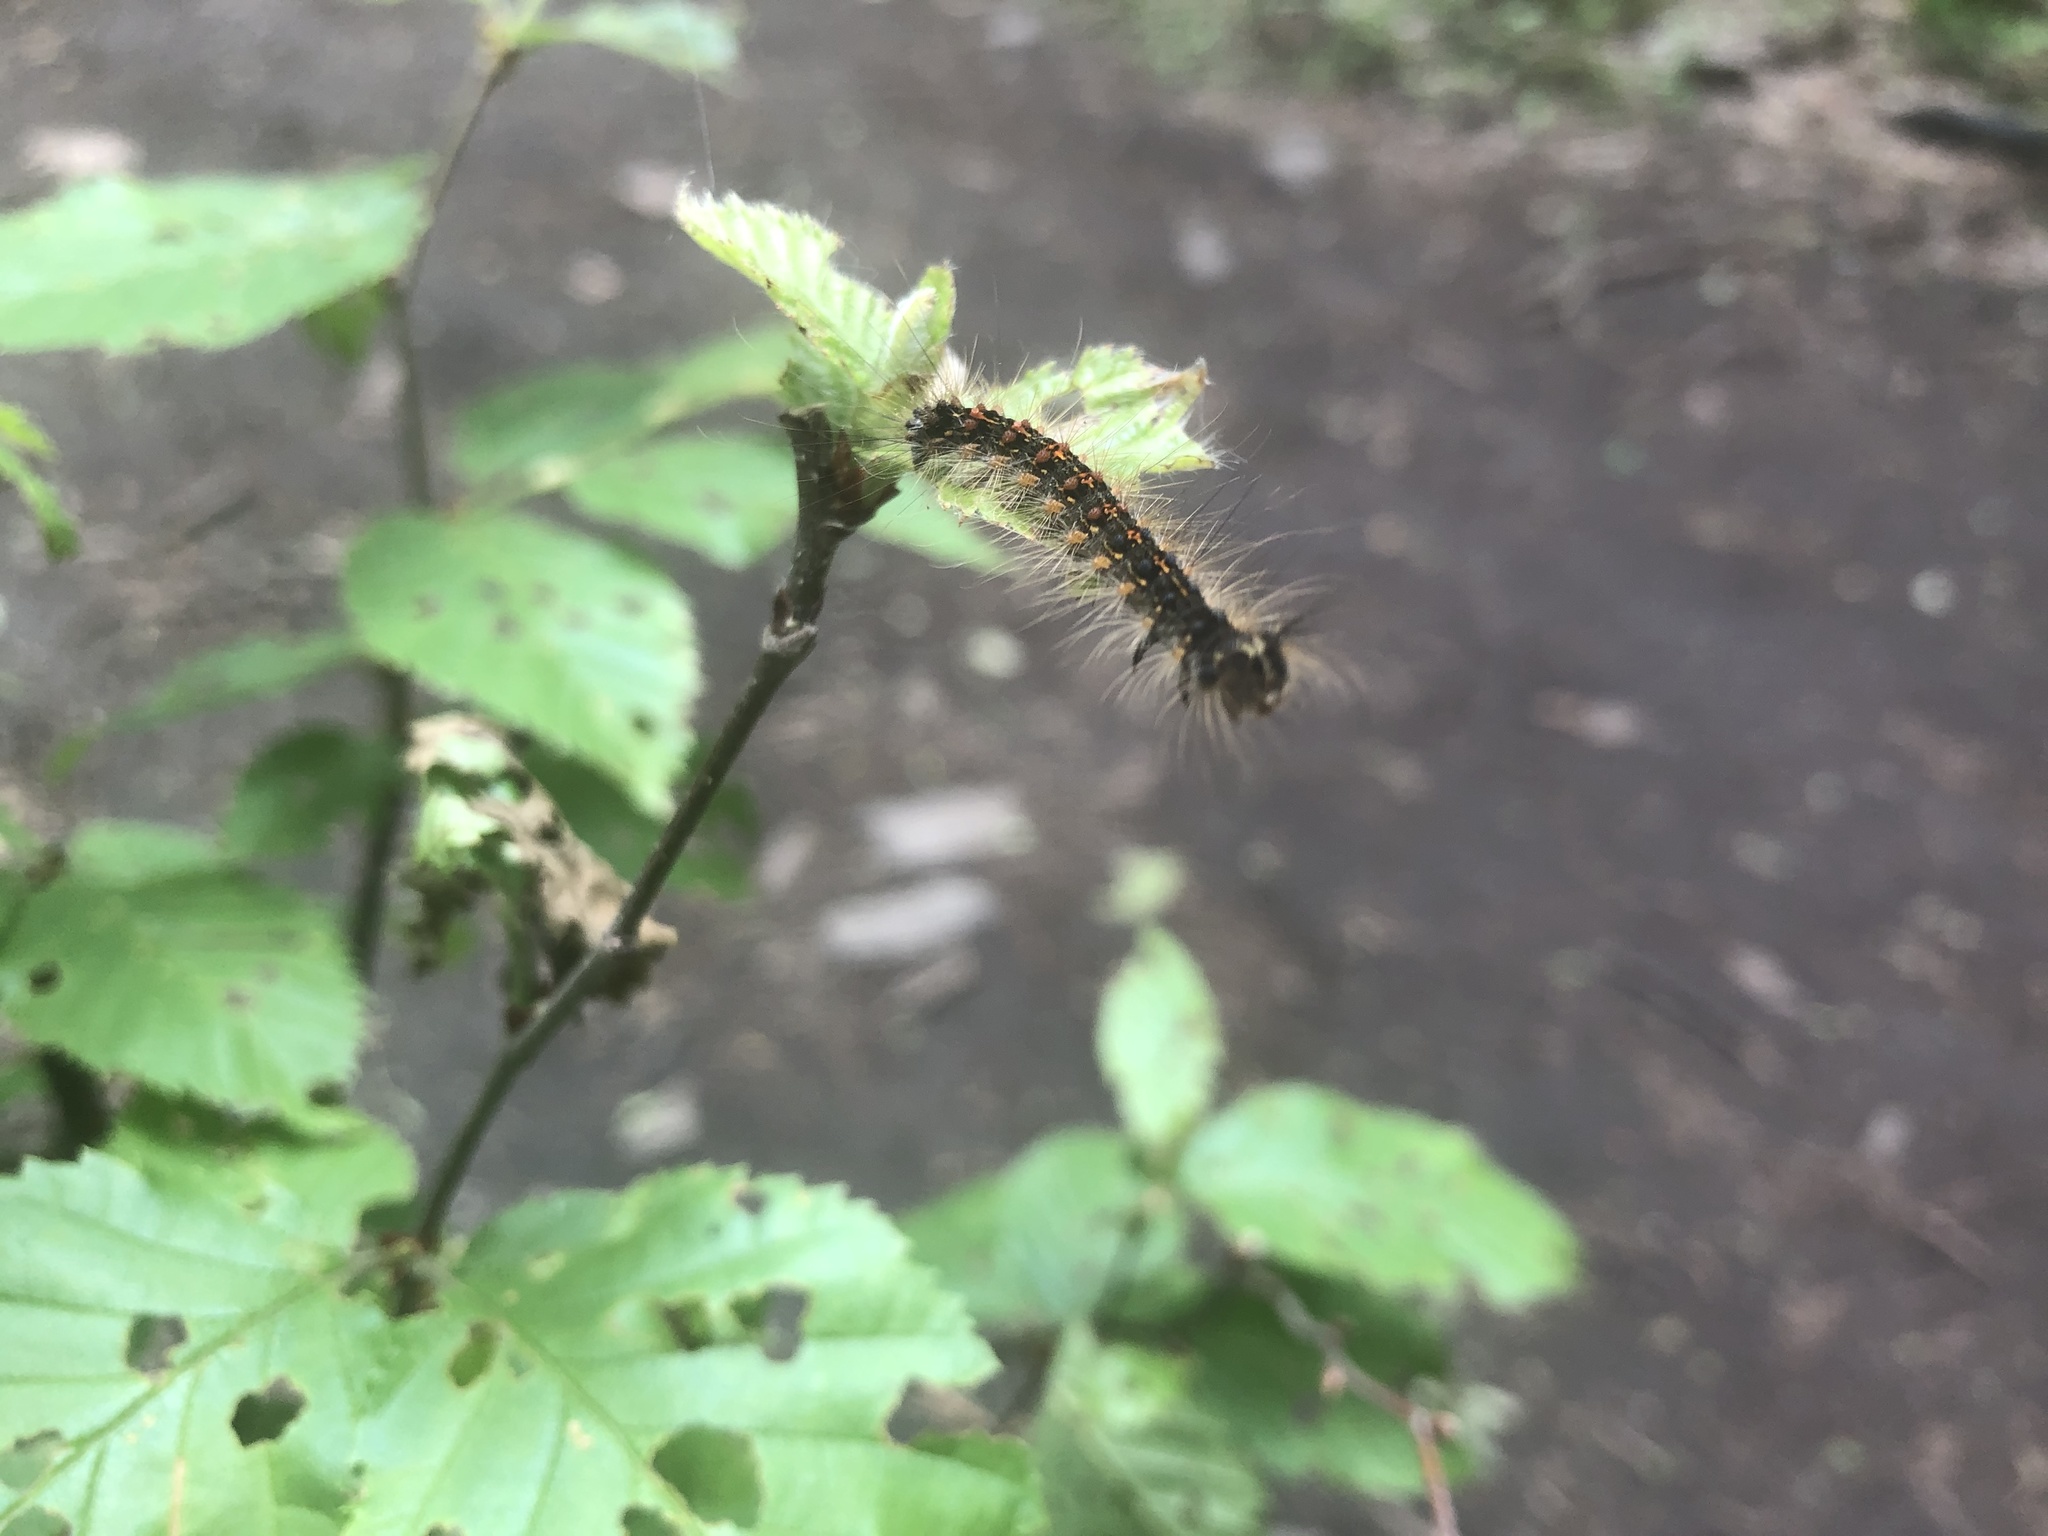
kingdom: Animalia
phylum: Arthropoda
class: Insecta
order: Lepidoptera
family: Erebidae
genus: Lymantria
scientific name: Lymantria dispar
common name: Gypsy moth
